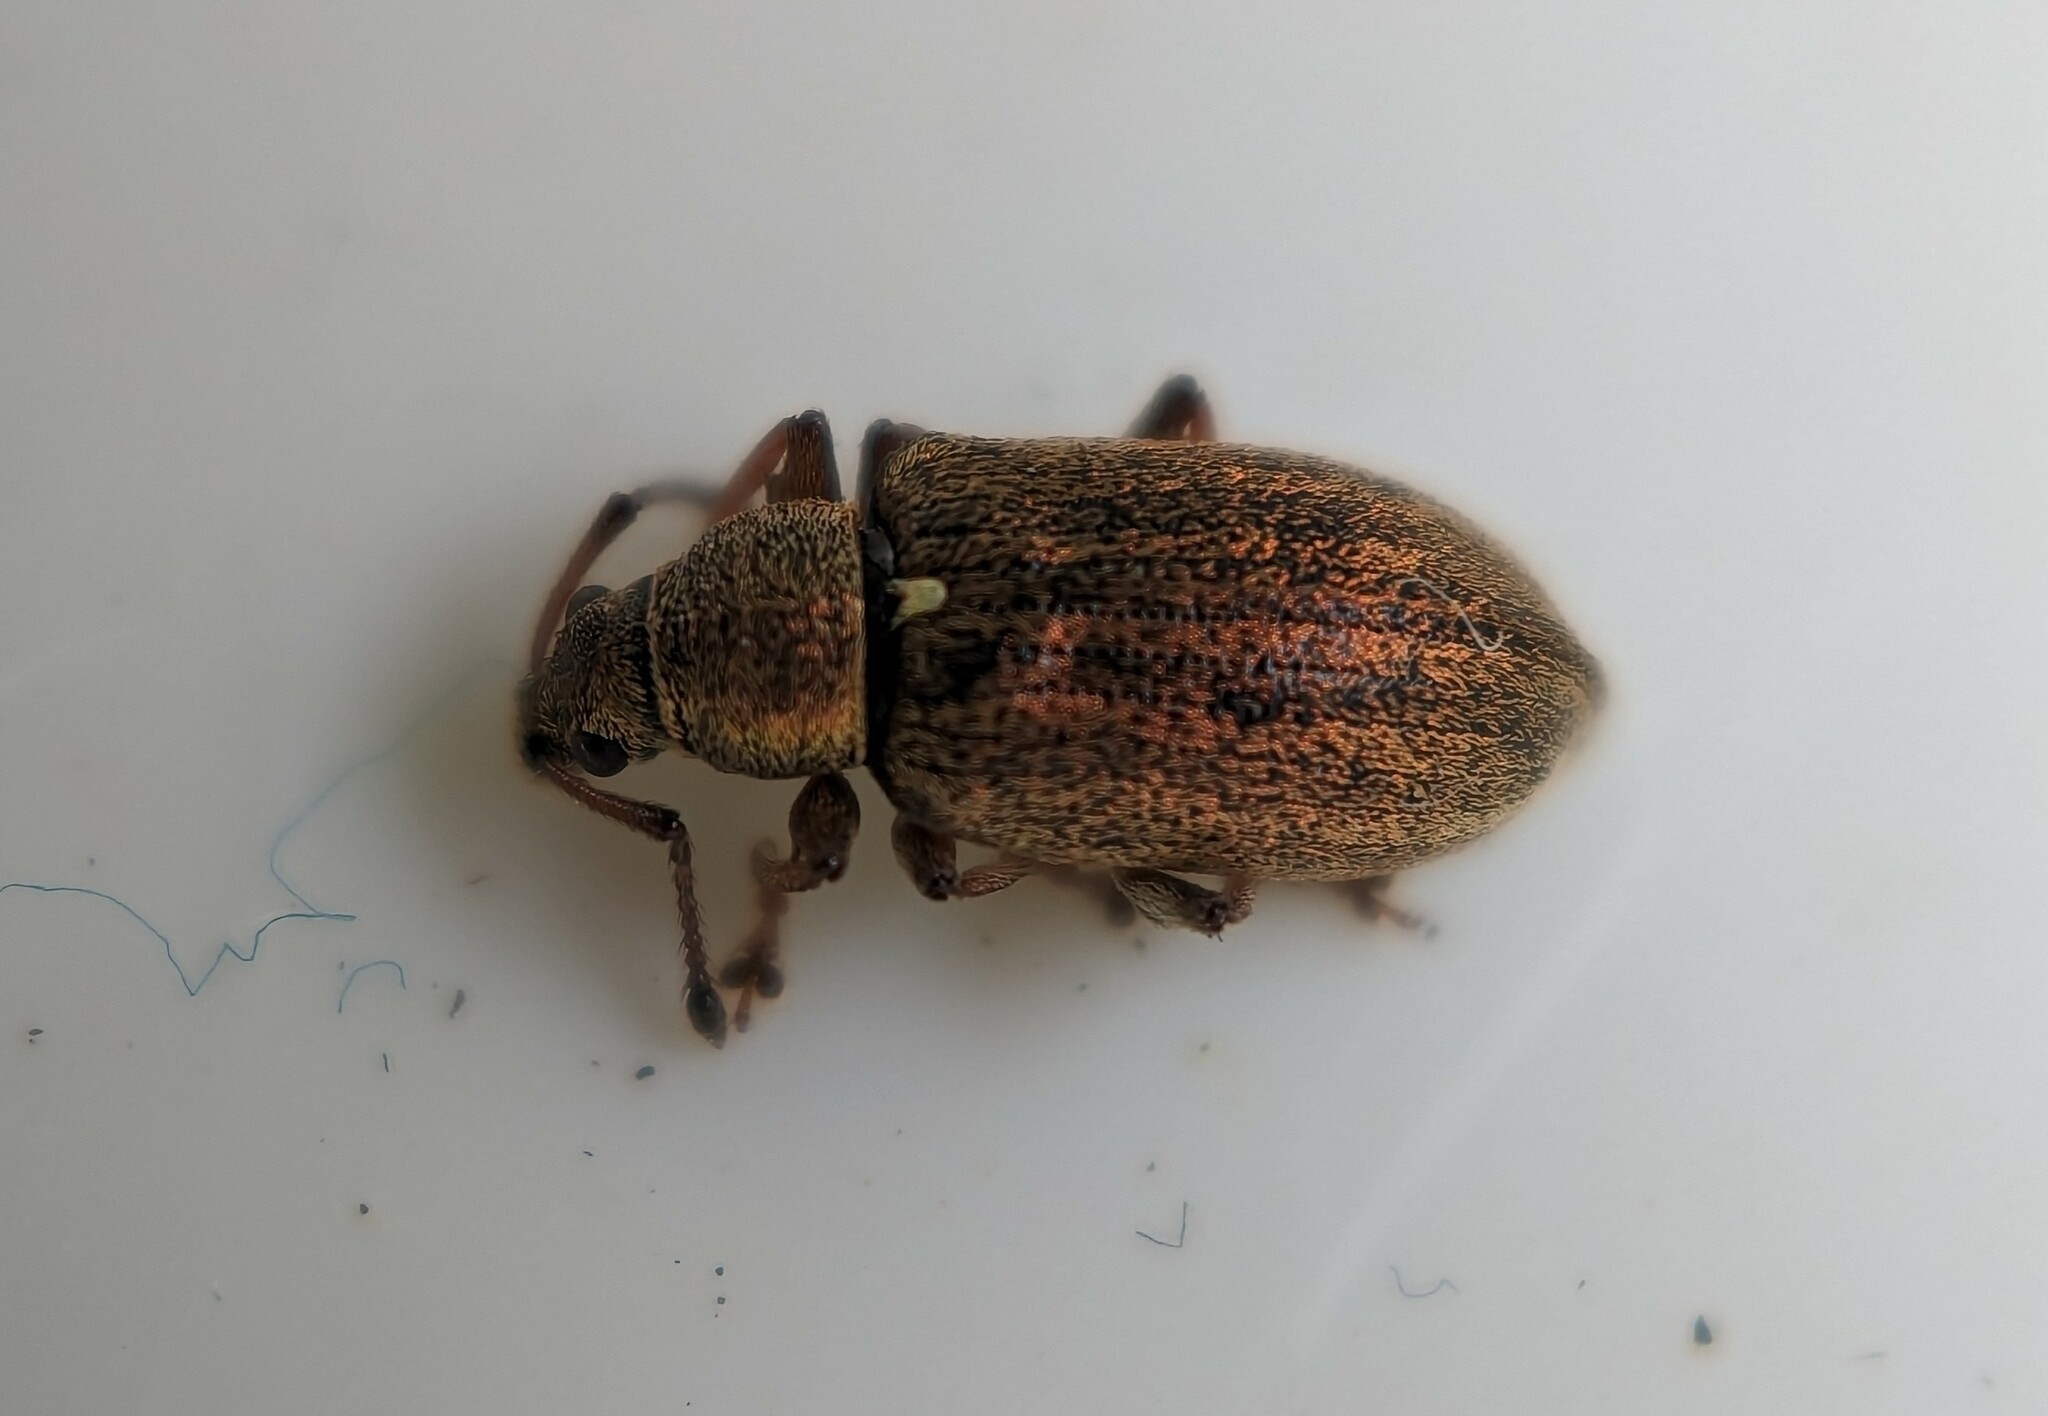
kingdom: Animalia
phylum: Arthropoda
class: Insecta
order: Coleoptera
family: Curculionidae
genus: Phyllobius
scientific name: Phyllobius pyri
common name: Common leaf weevil
